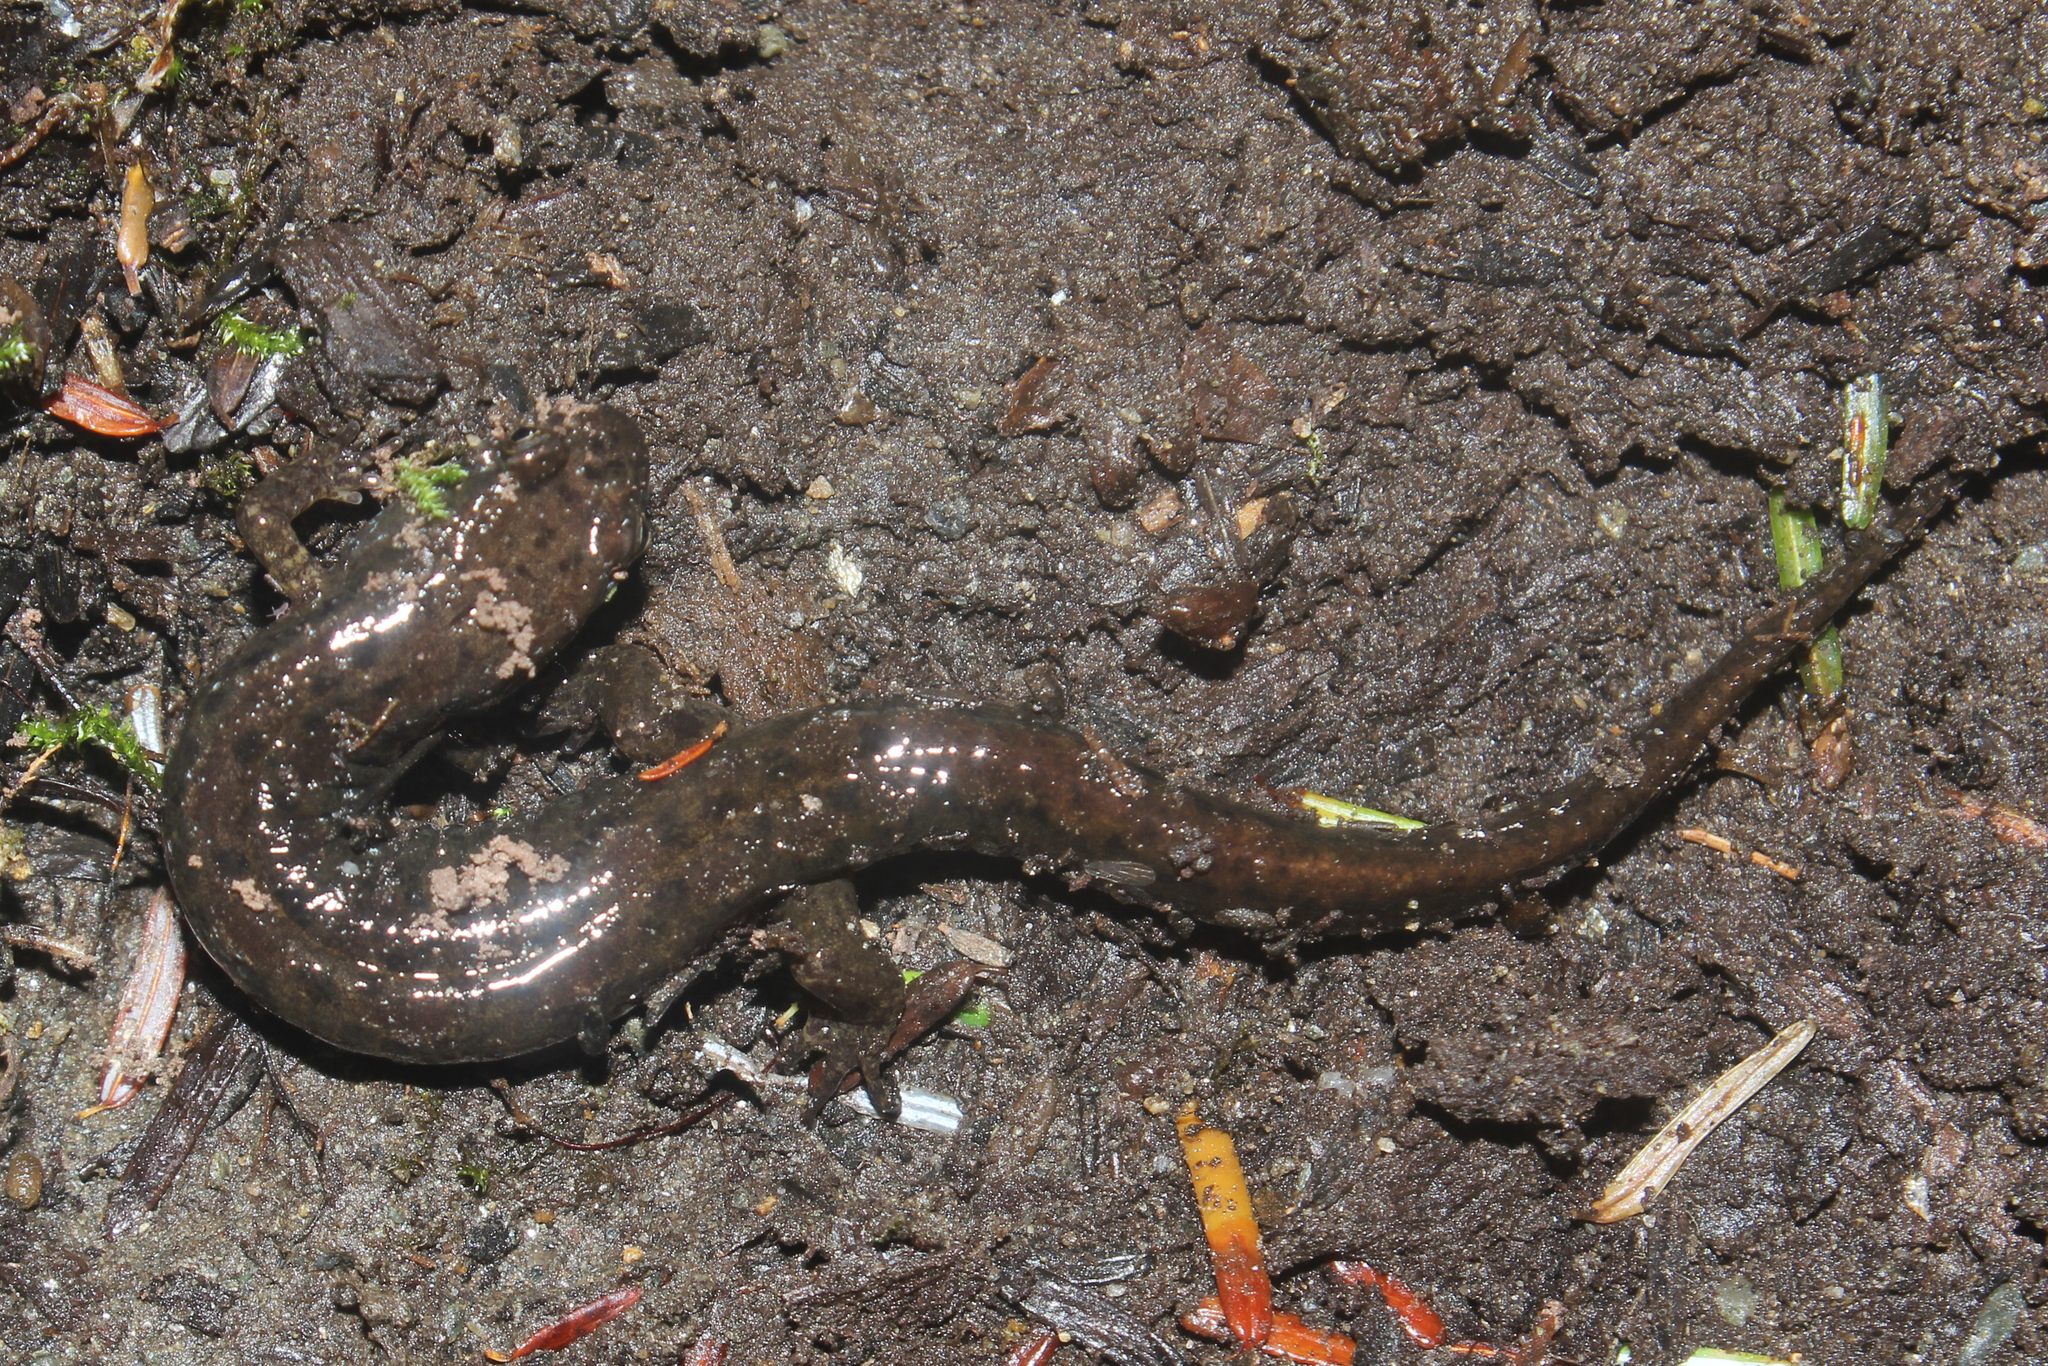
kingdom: Animalia
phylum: Chordata
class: Amphibia
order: Caudata
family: Plethodontidae
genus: Desmognathus
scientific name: Desmognathus fuscus
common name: Northern dusky salamander
